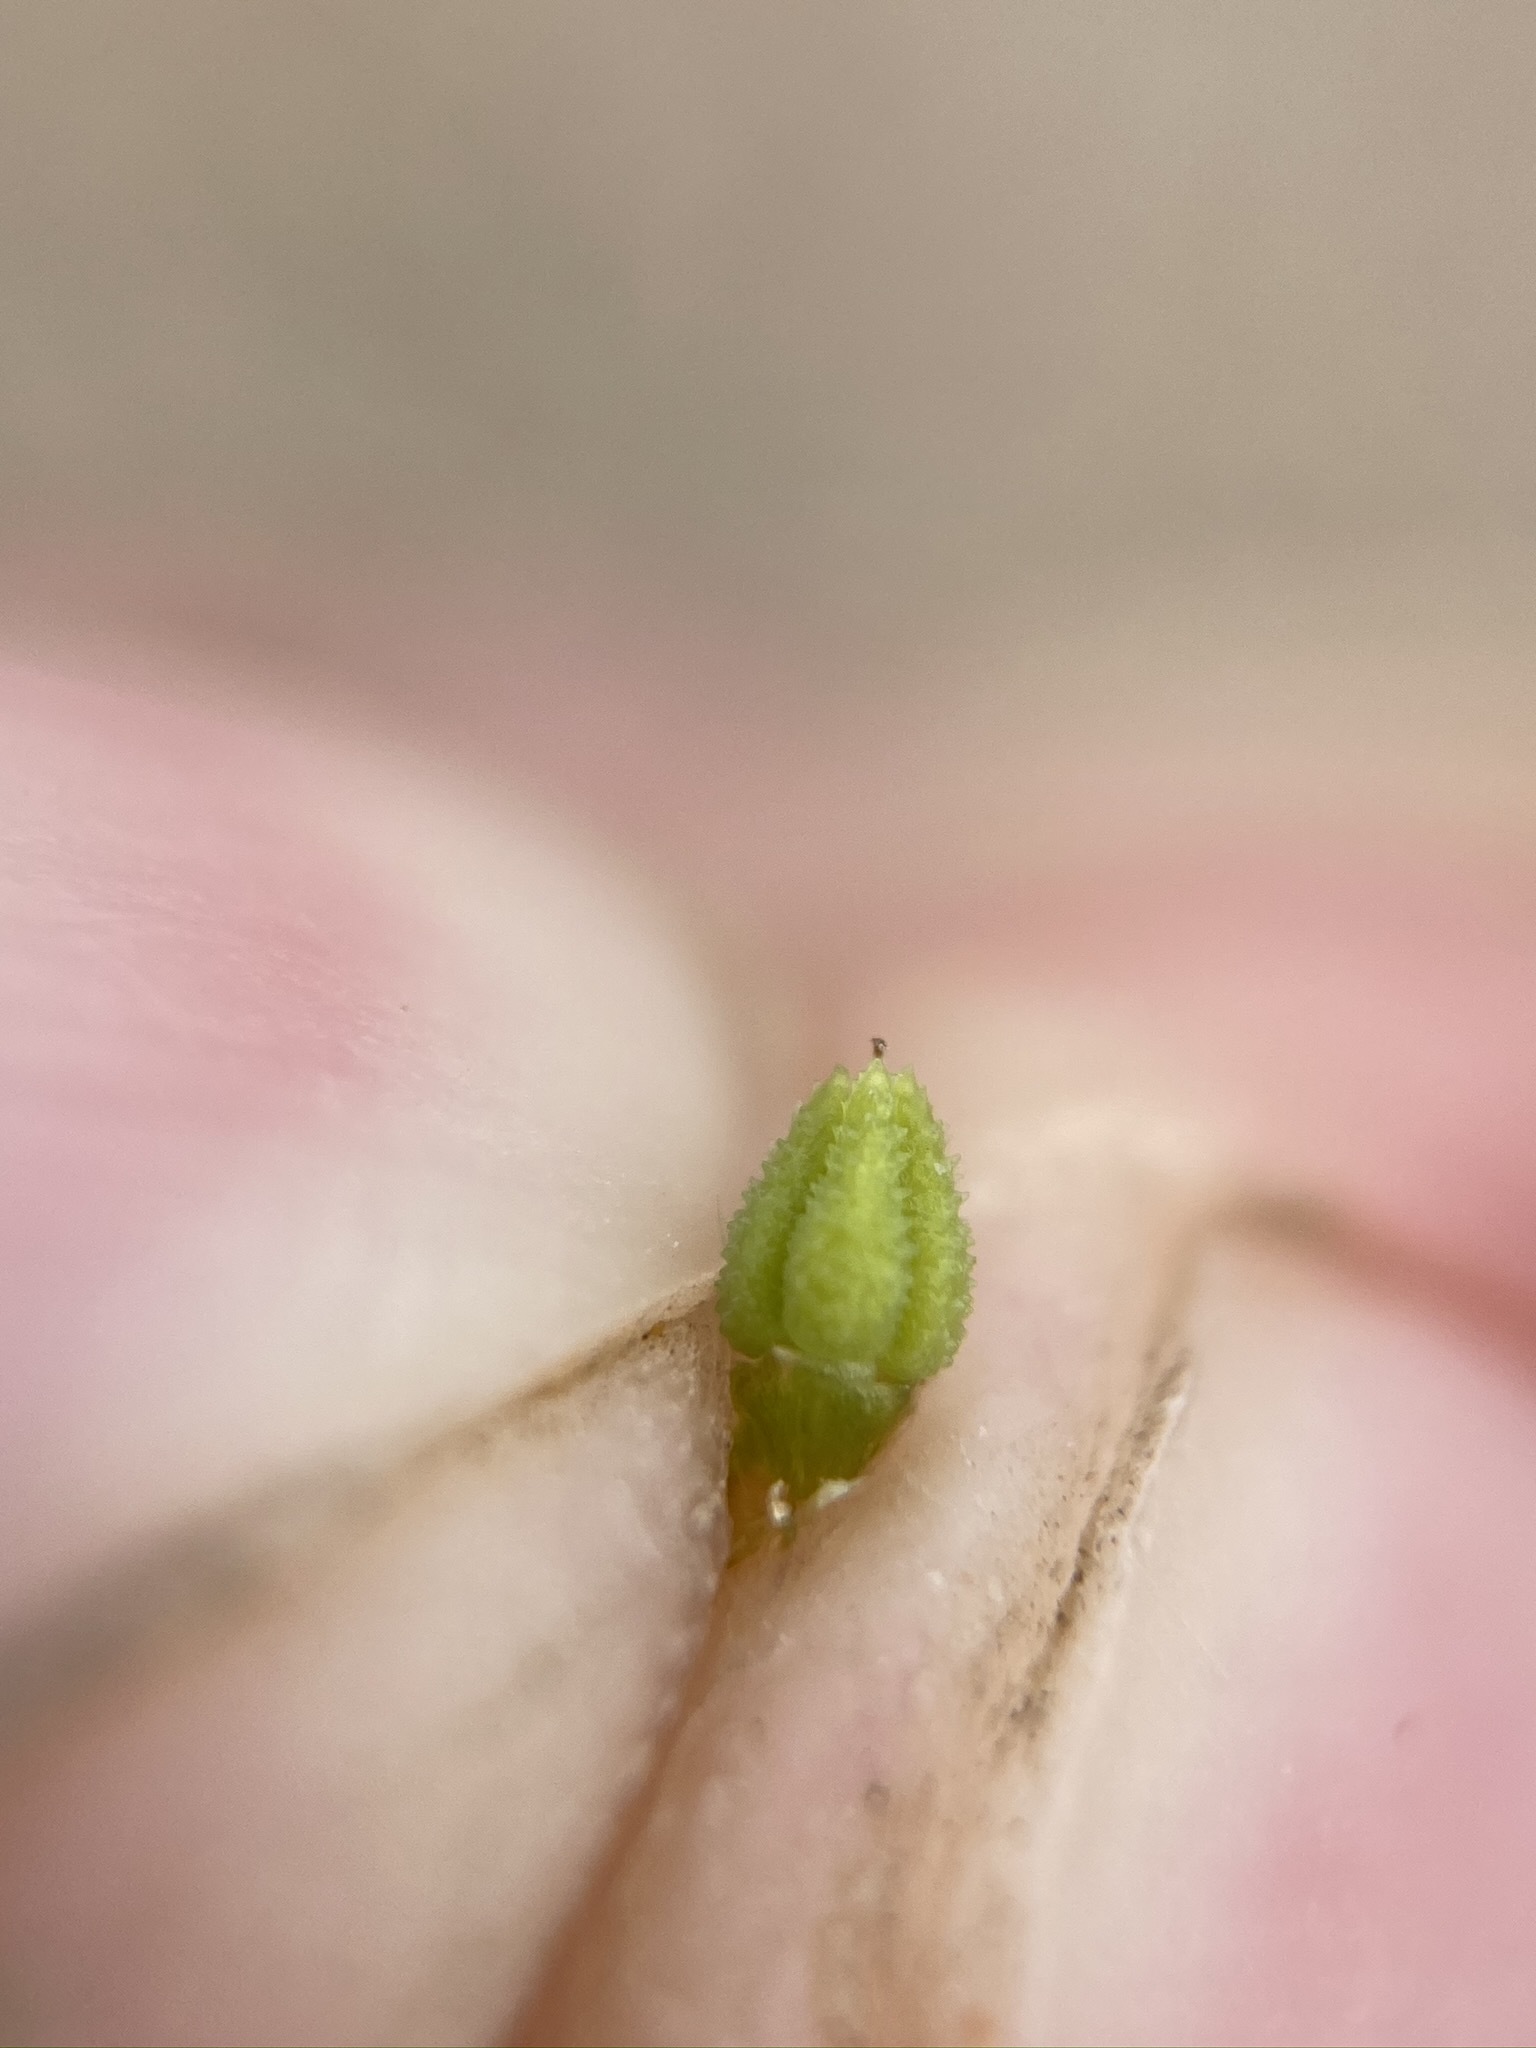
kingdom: Plantae
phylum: Tracheophyta
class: Magnoliopsida
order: Boraginales
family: Boraginaceae
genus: Cryptantha
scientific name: Cryptantha nevadensis
